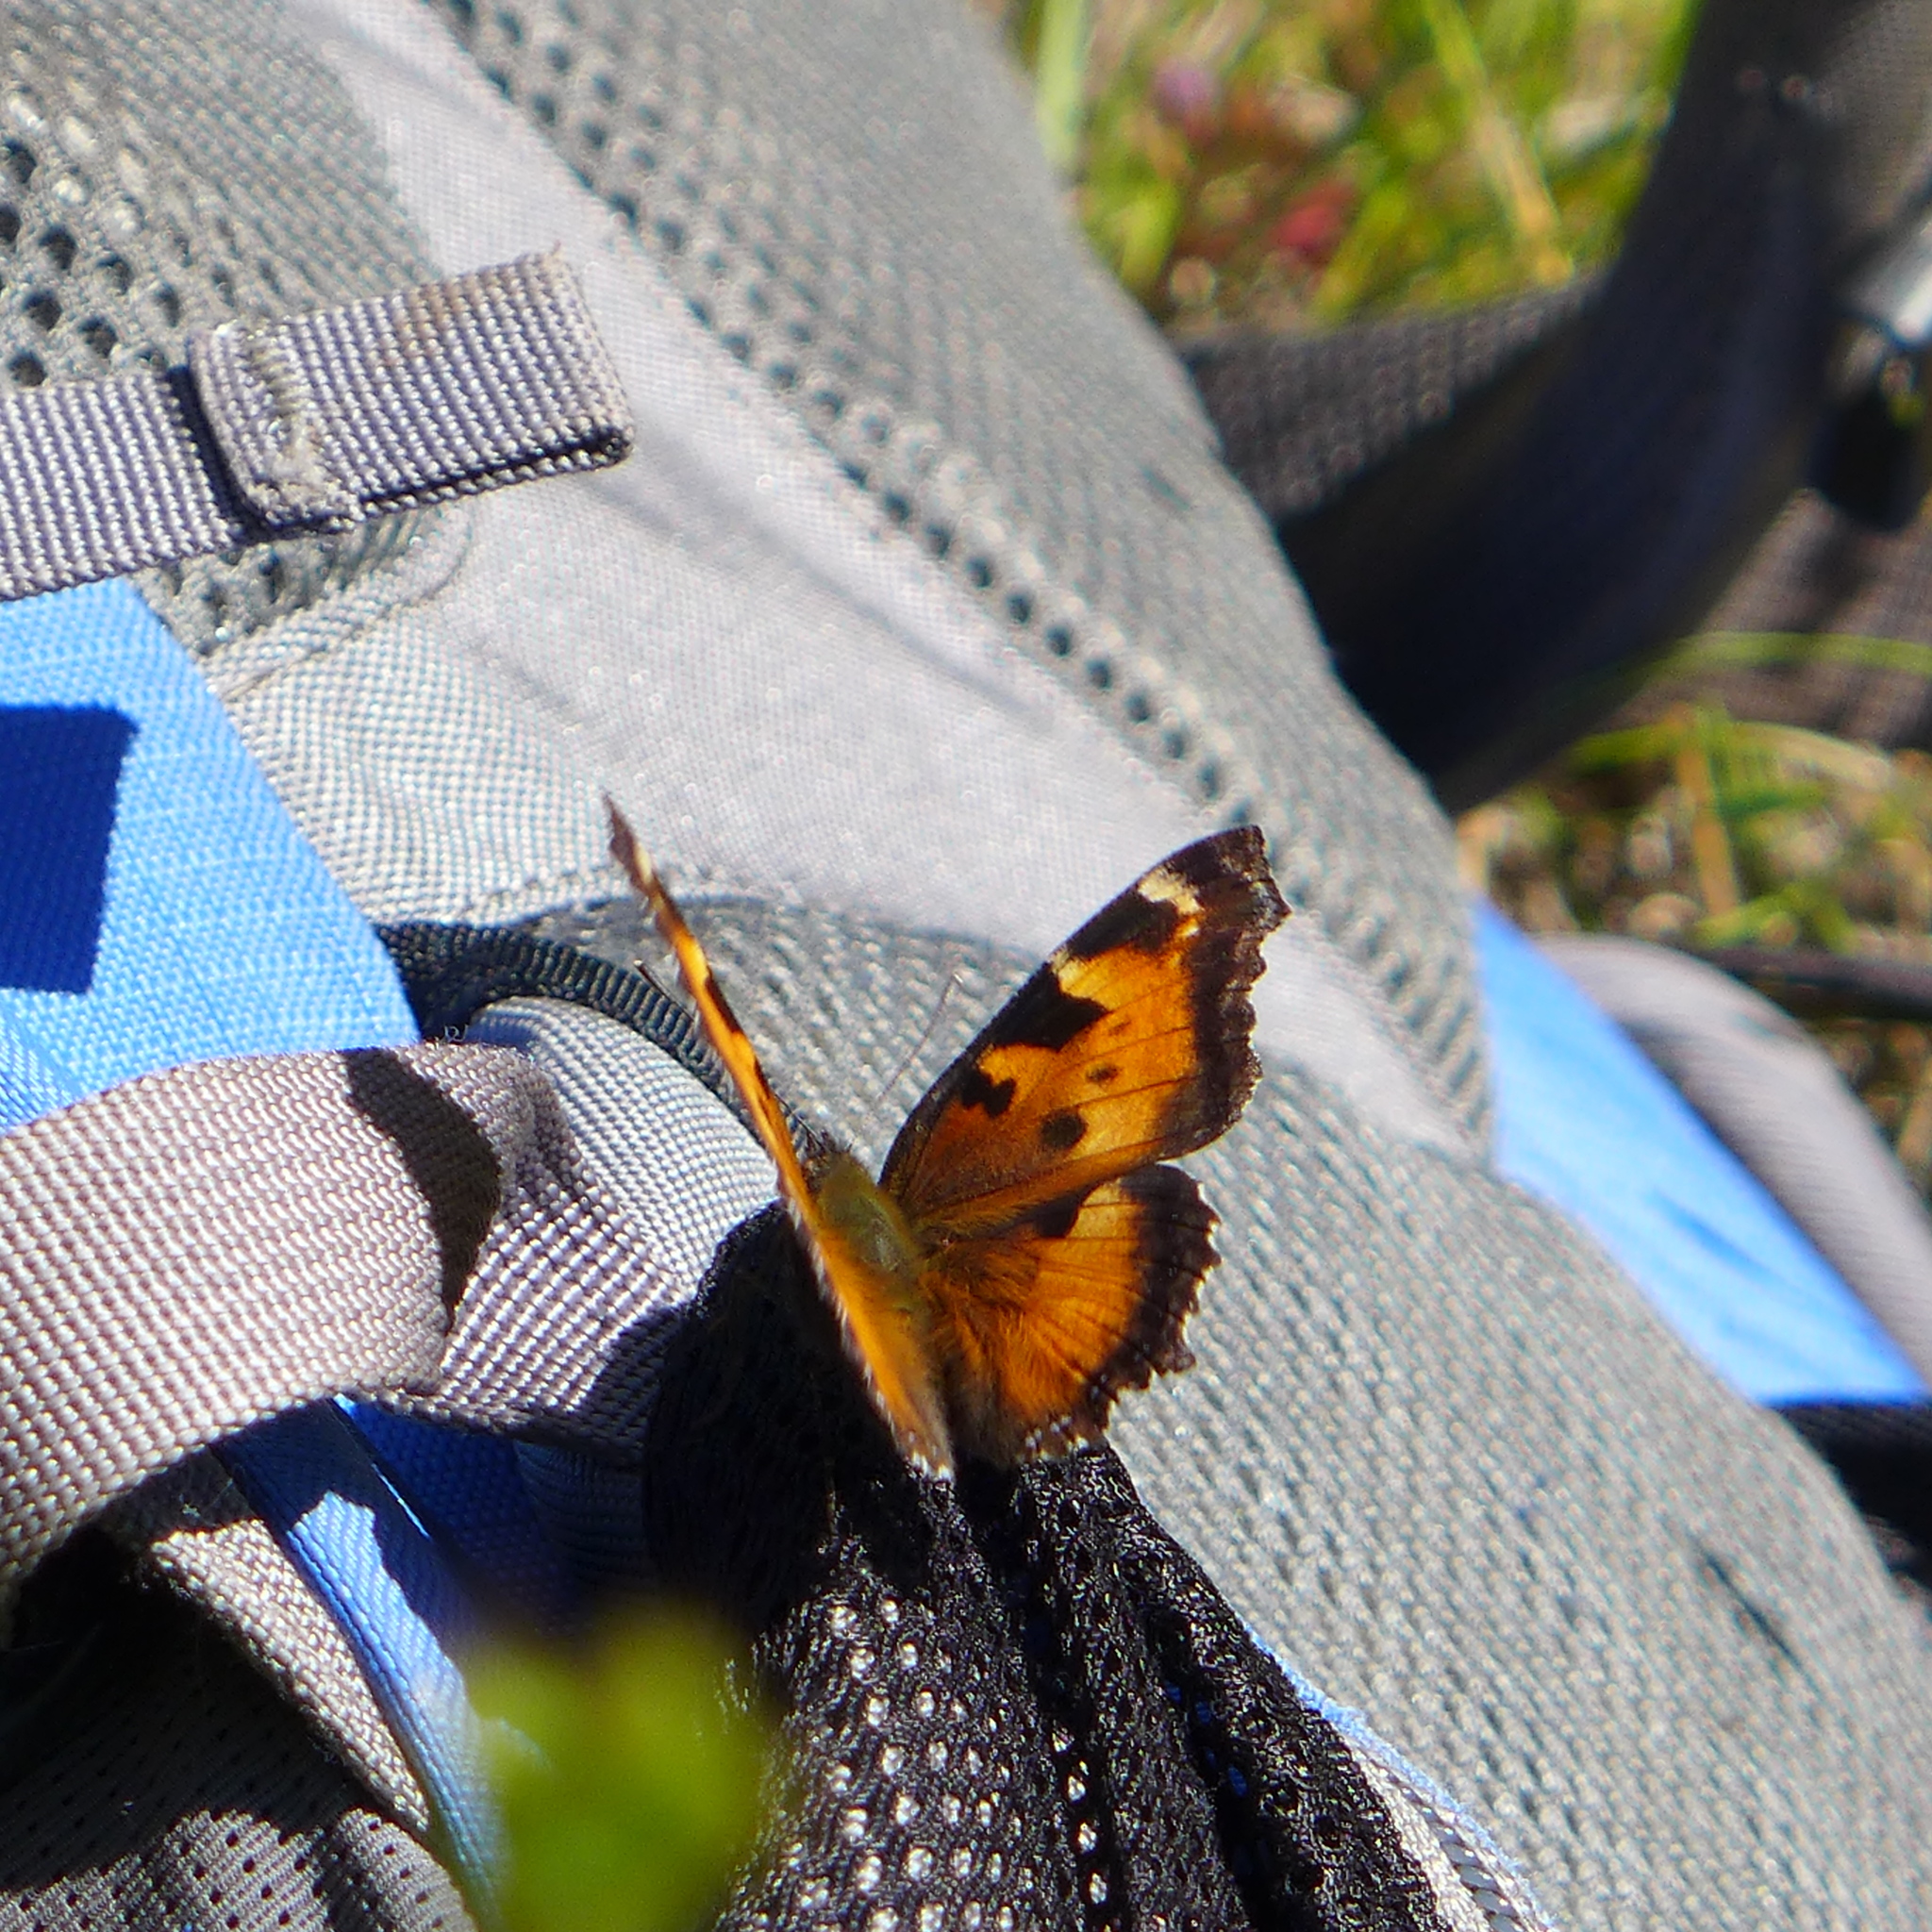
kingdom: Animalia
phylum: Arthropoda
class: Insecta
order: Lepidoptera
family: Nymphalidae
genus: Nymphalis
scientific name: Nymphalis californica
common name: California tortoiseshell
